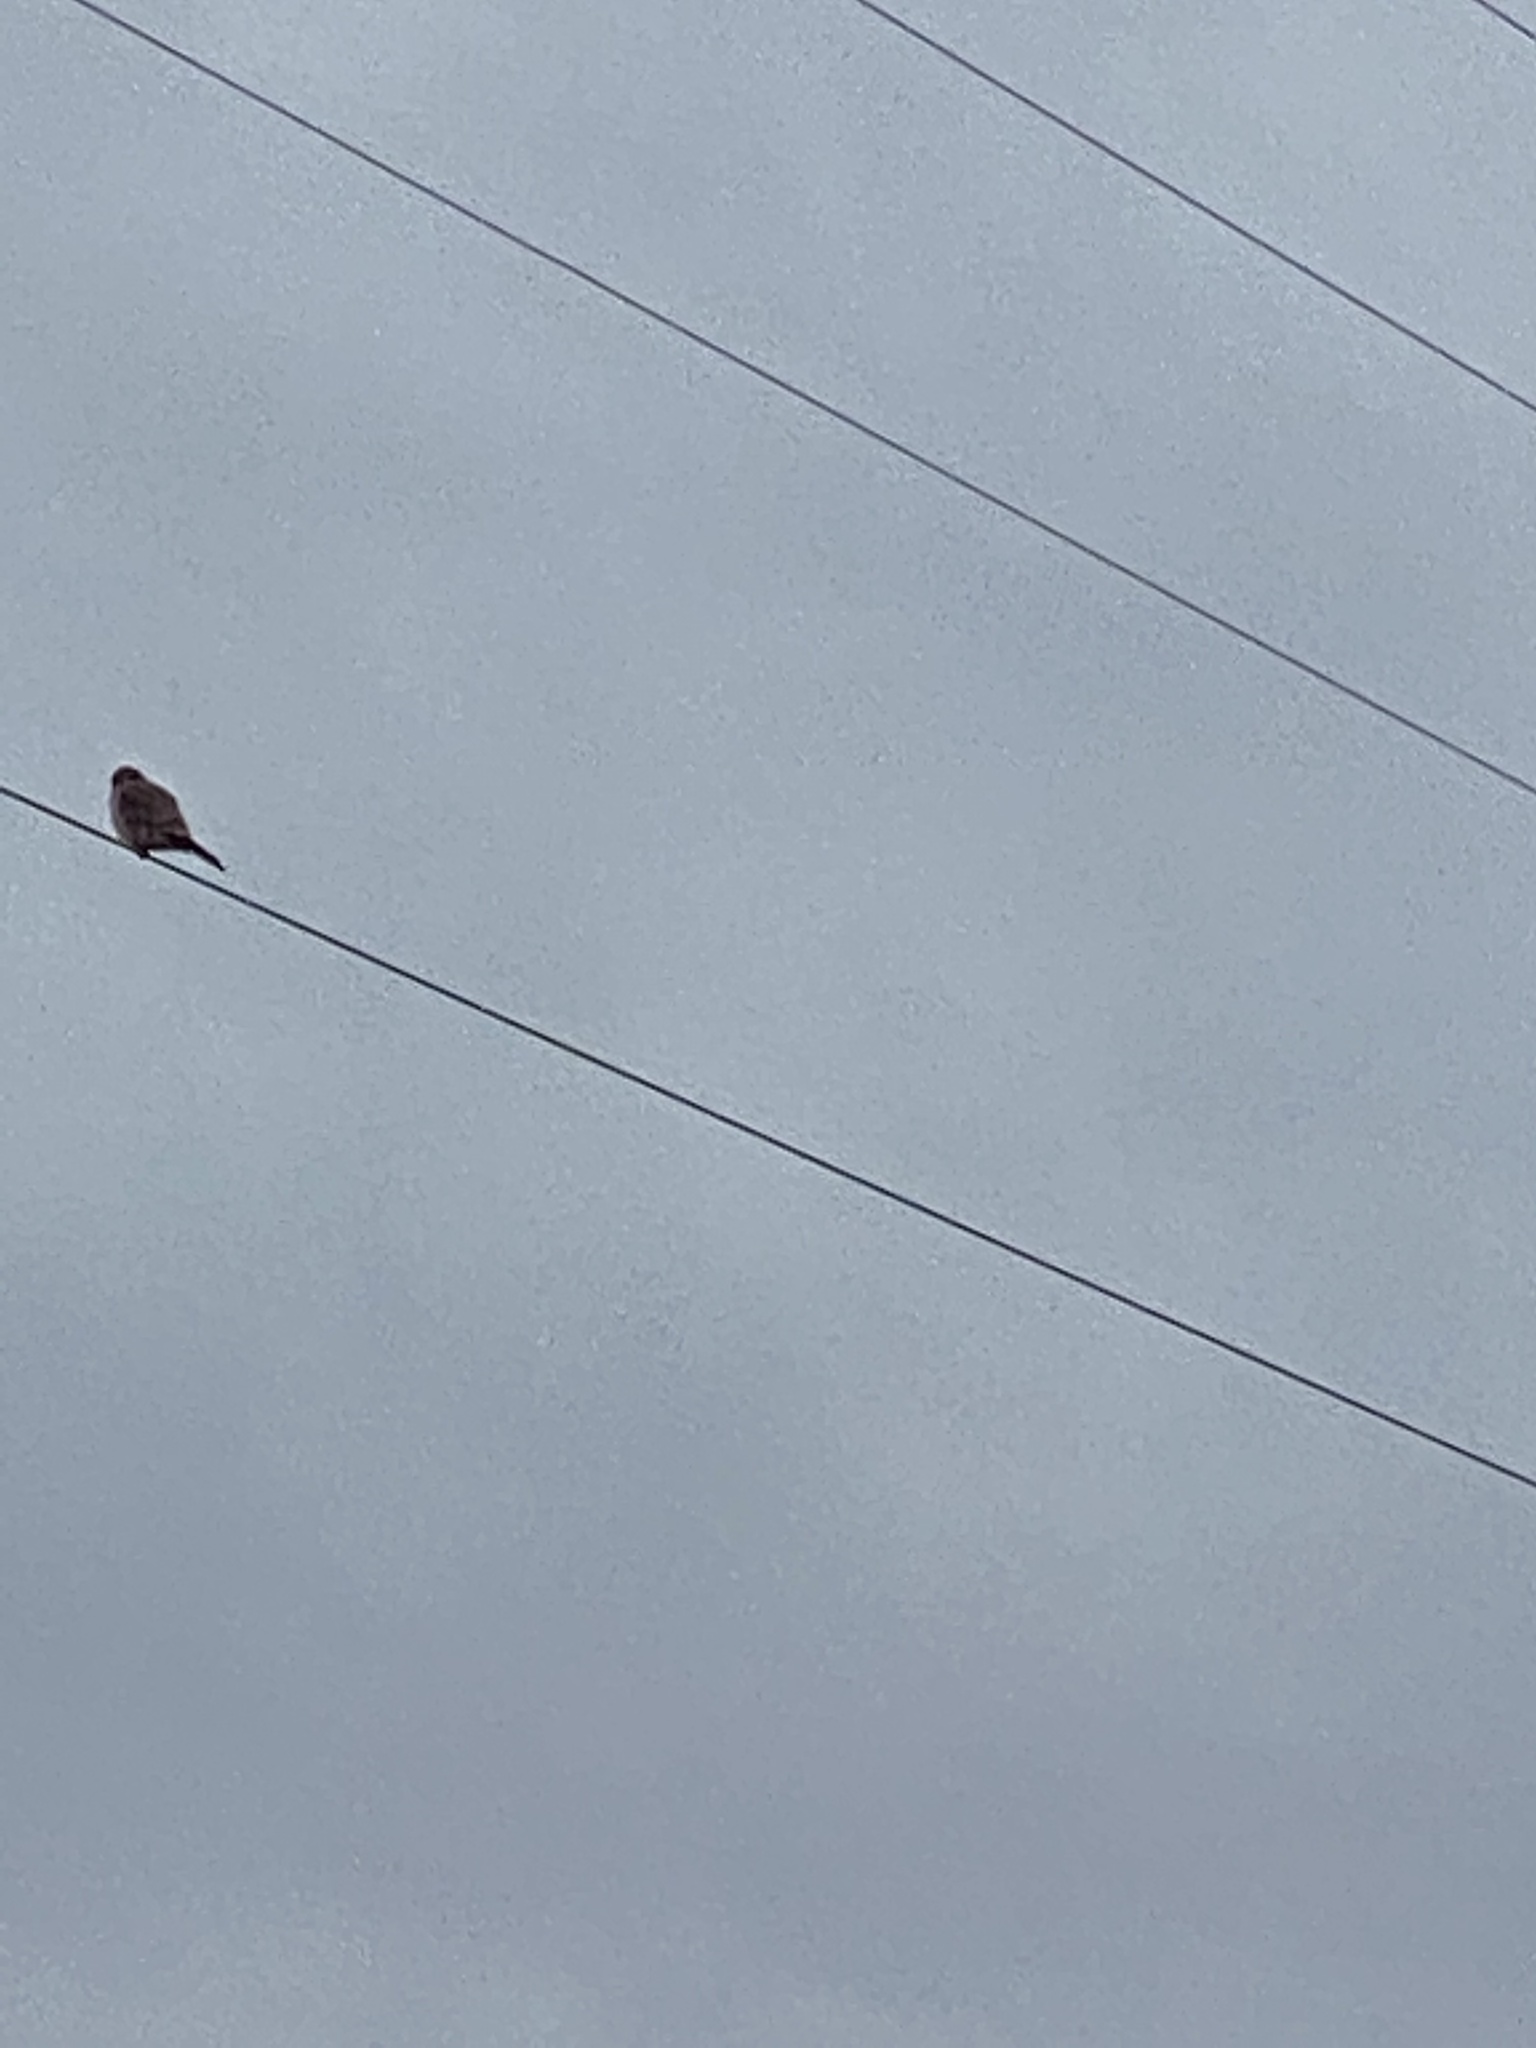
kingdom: Animalia
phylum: Chordata
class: Aves
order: Falconiformes
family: Falconidae
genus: Falco
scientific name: Falco sparverius
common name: American kestrel
